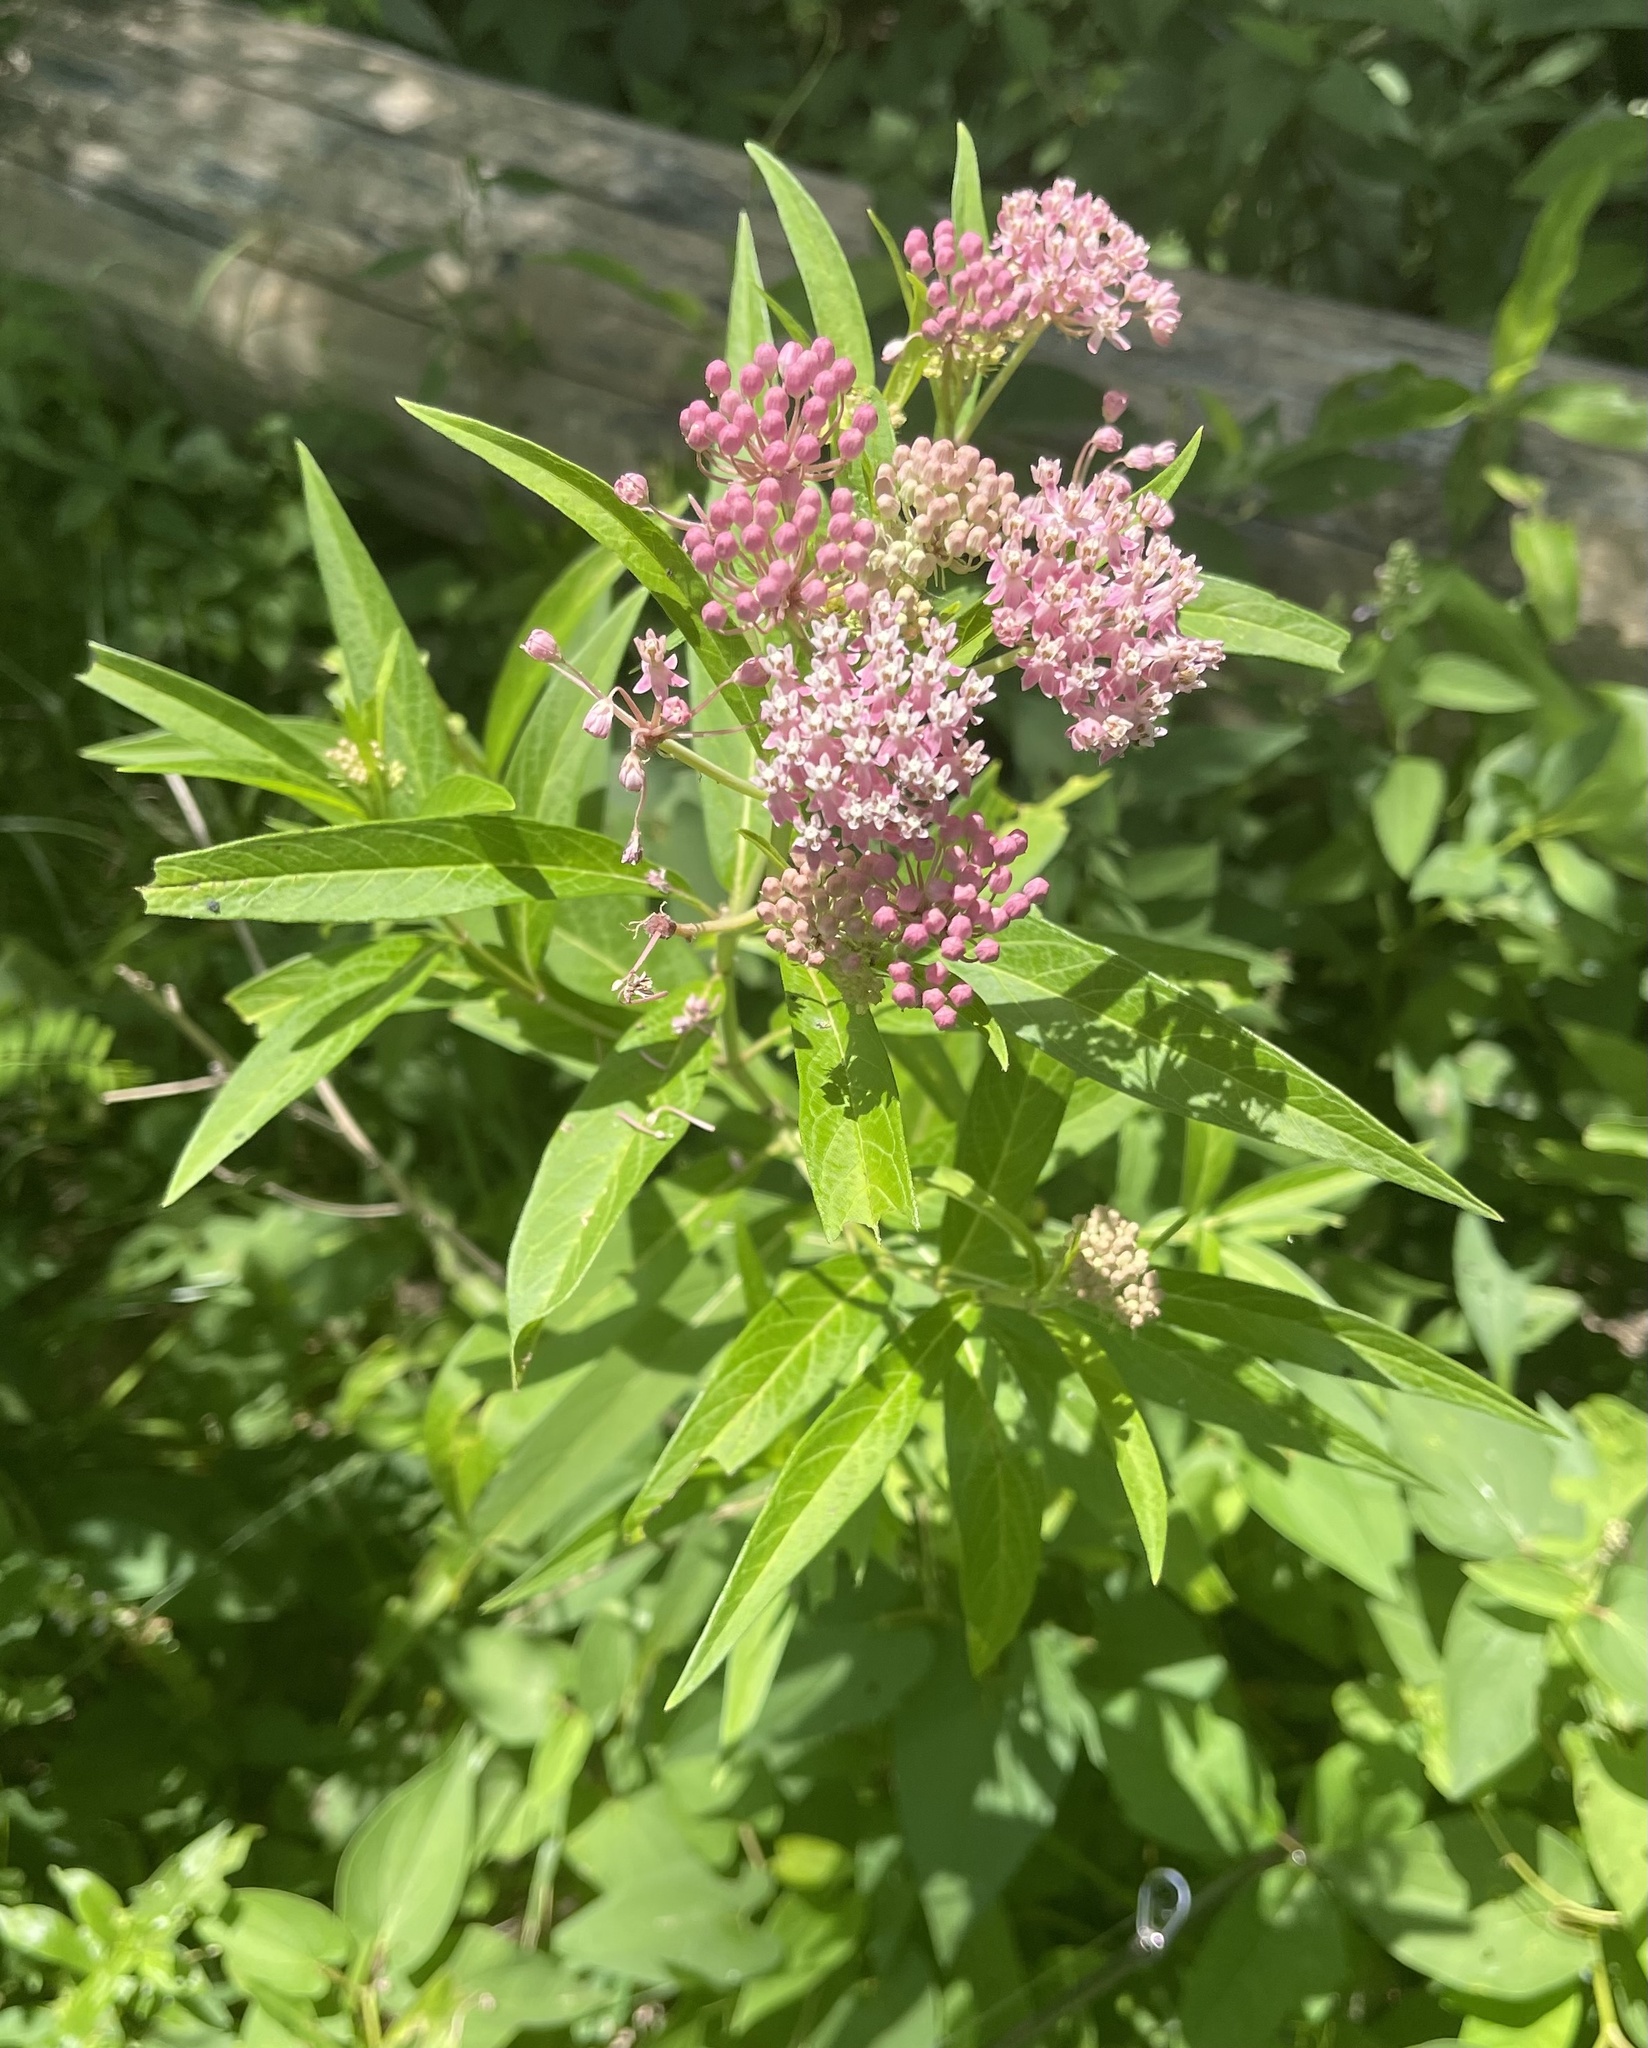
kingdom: Plantae
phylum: Tracheophyta
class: Magnoliopsida
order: Gentianales
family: Apocynaceae
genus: Asclepias
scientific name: Asclepias incarnata
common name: Swamp milkweed
